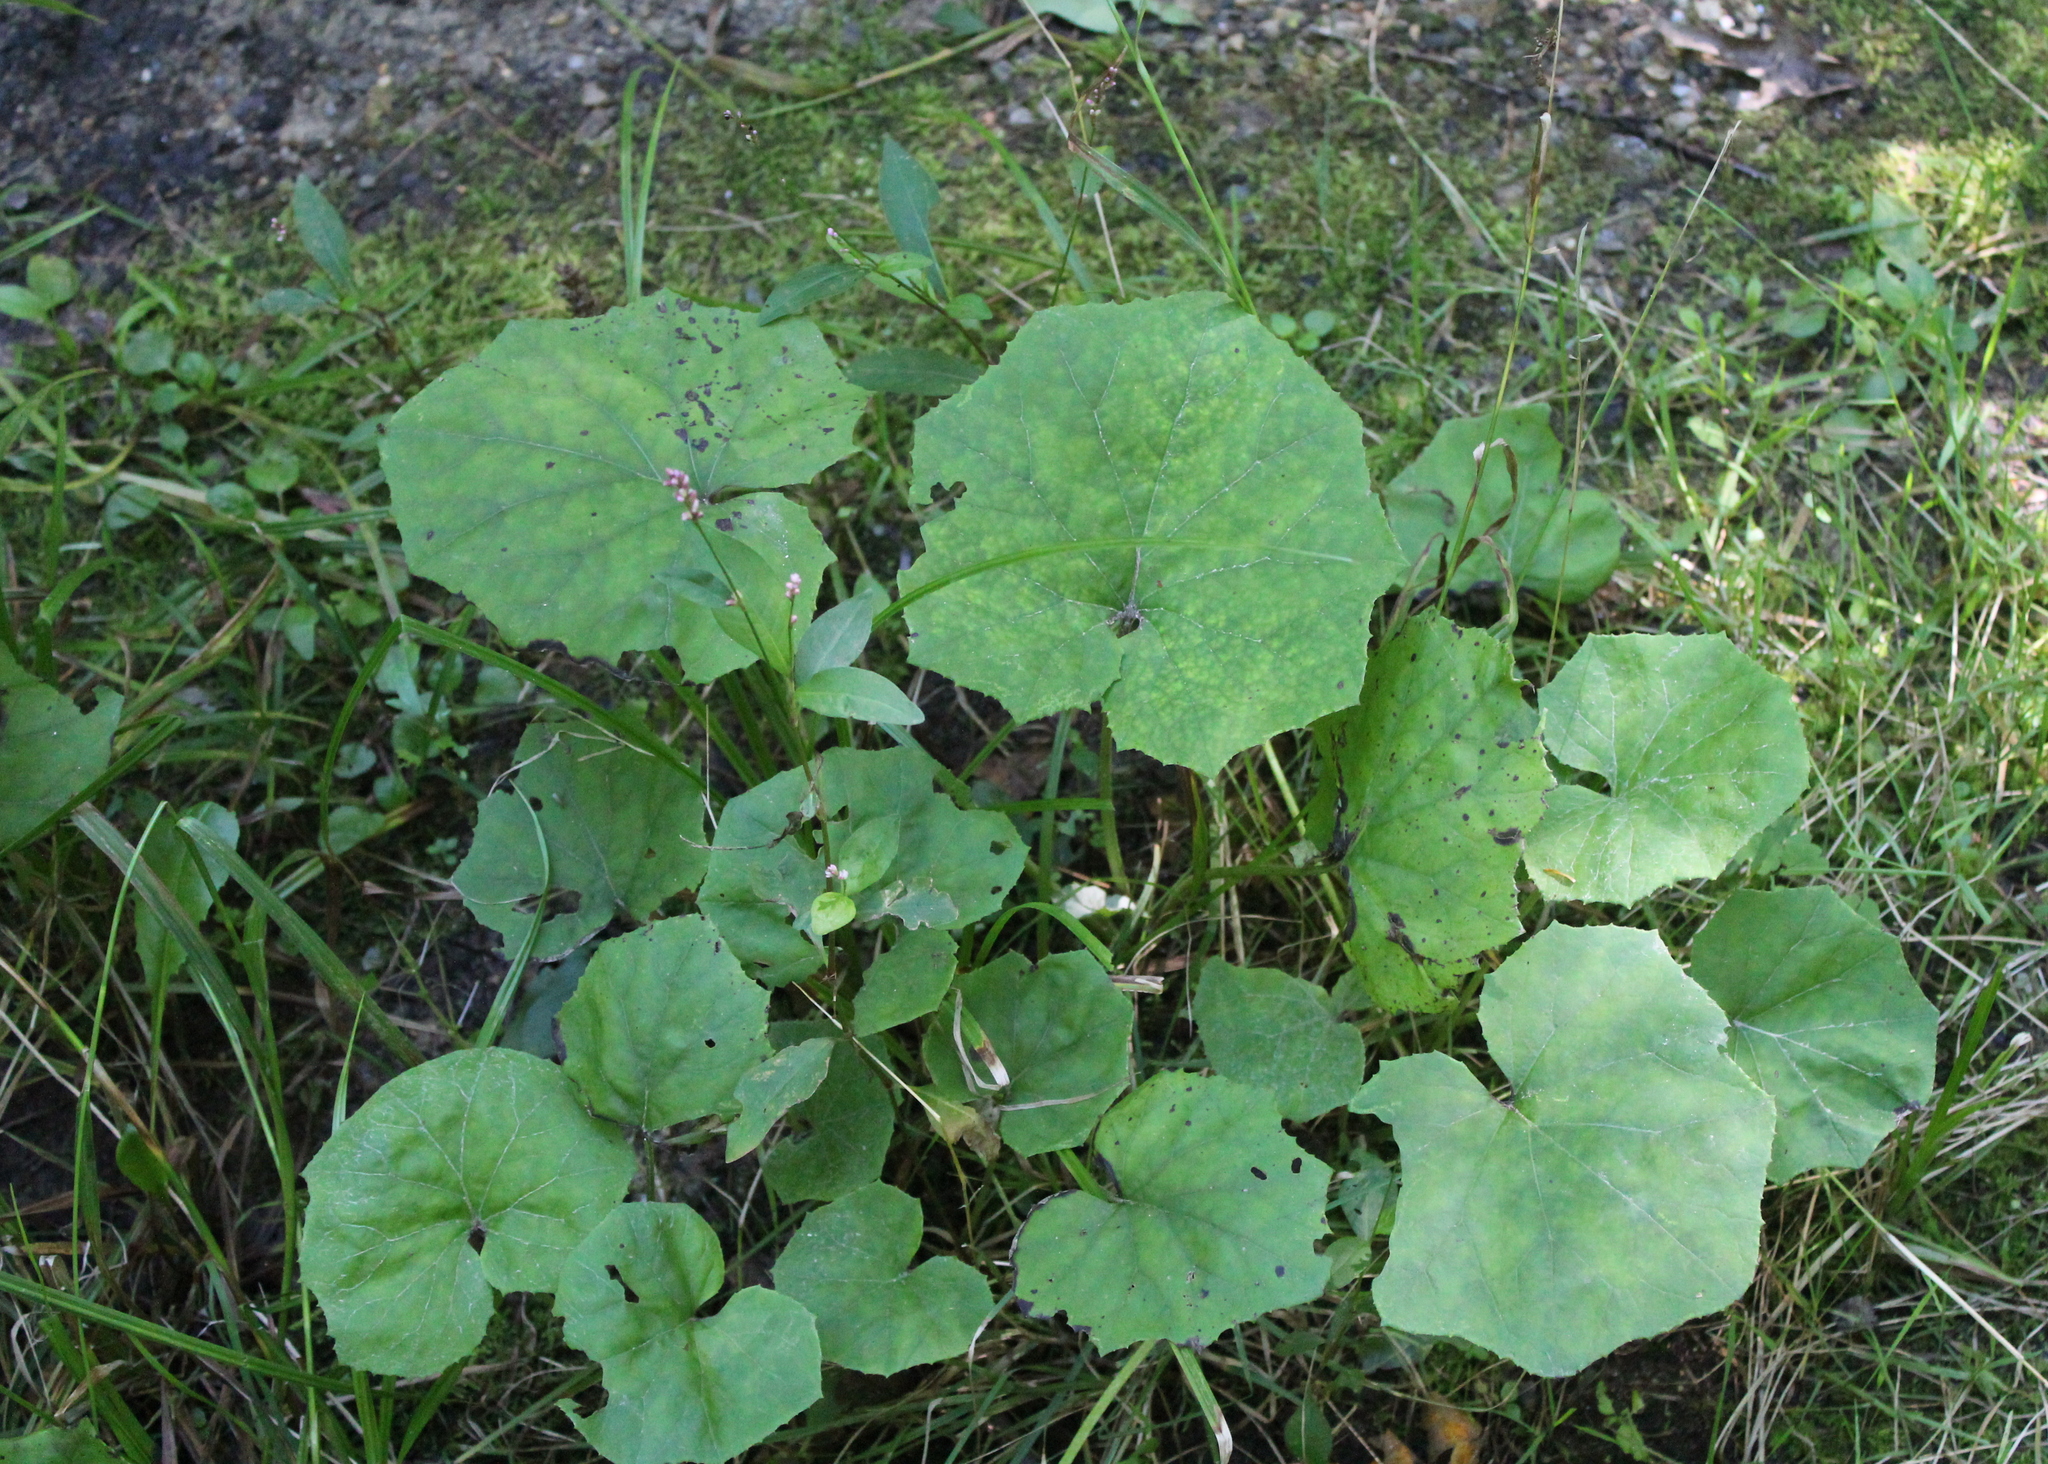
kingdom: Plantae
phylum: Tracheophyta
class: Magnoliopsida
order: Asterales
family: Asteraceae
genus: Tussilago
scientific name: Tussilago farfara
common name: Coltsfoot
